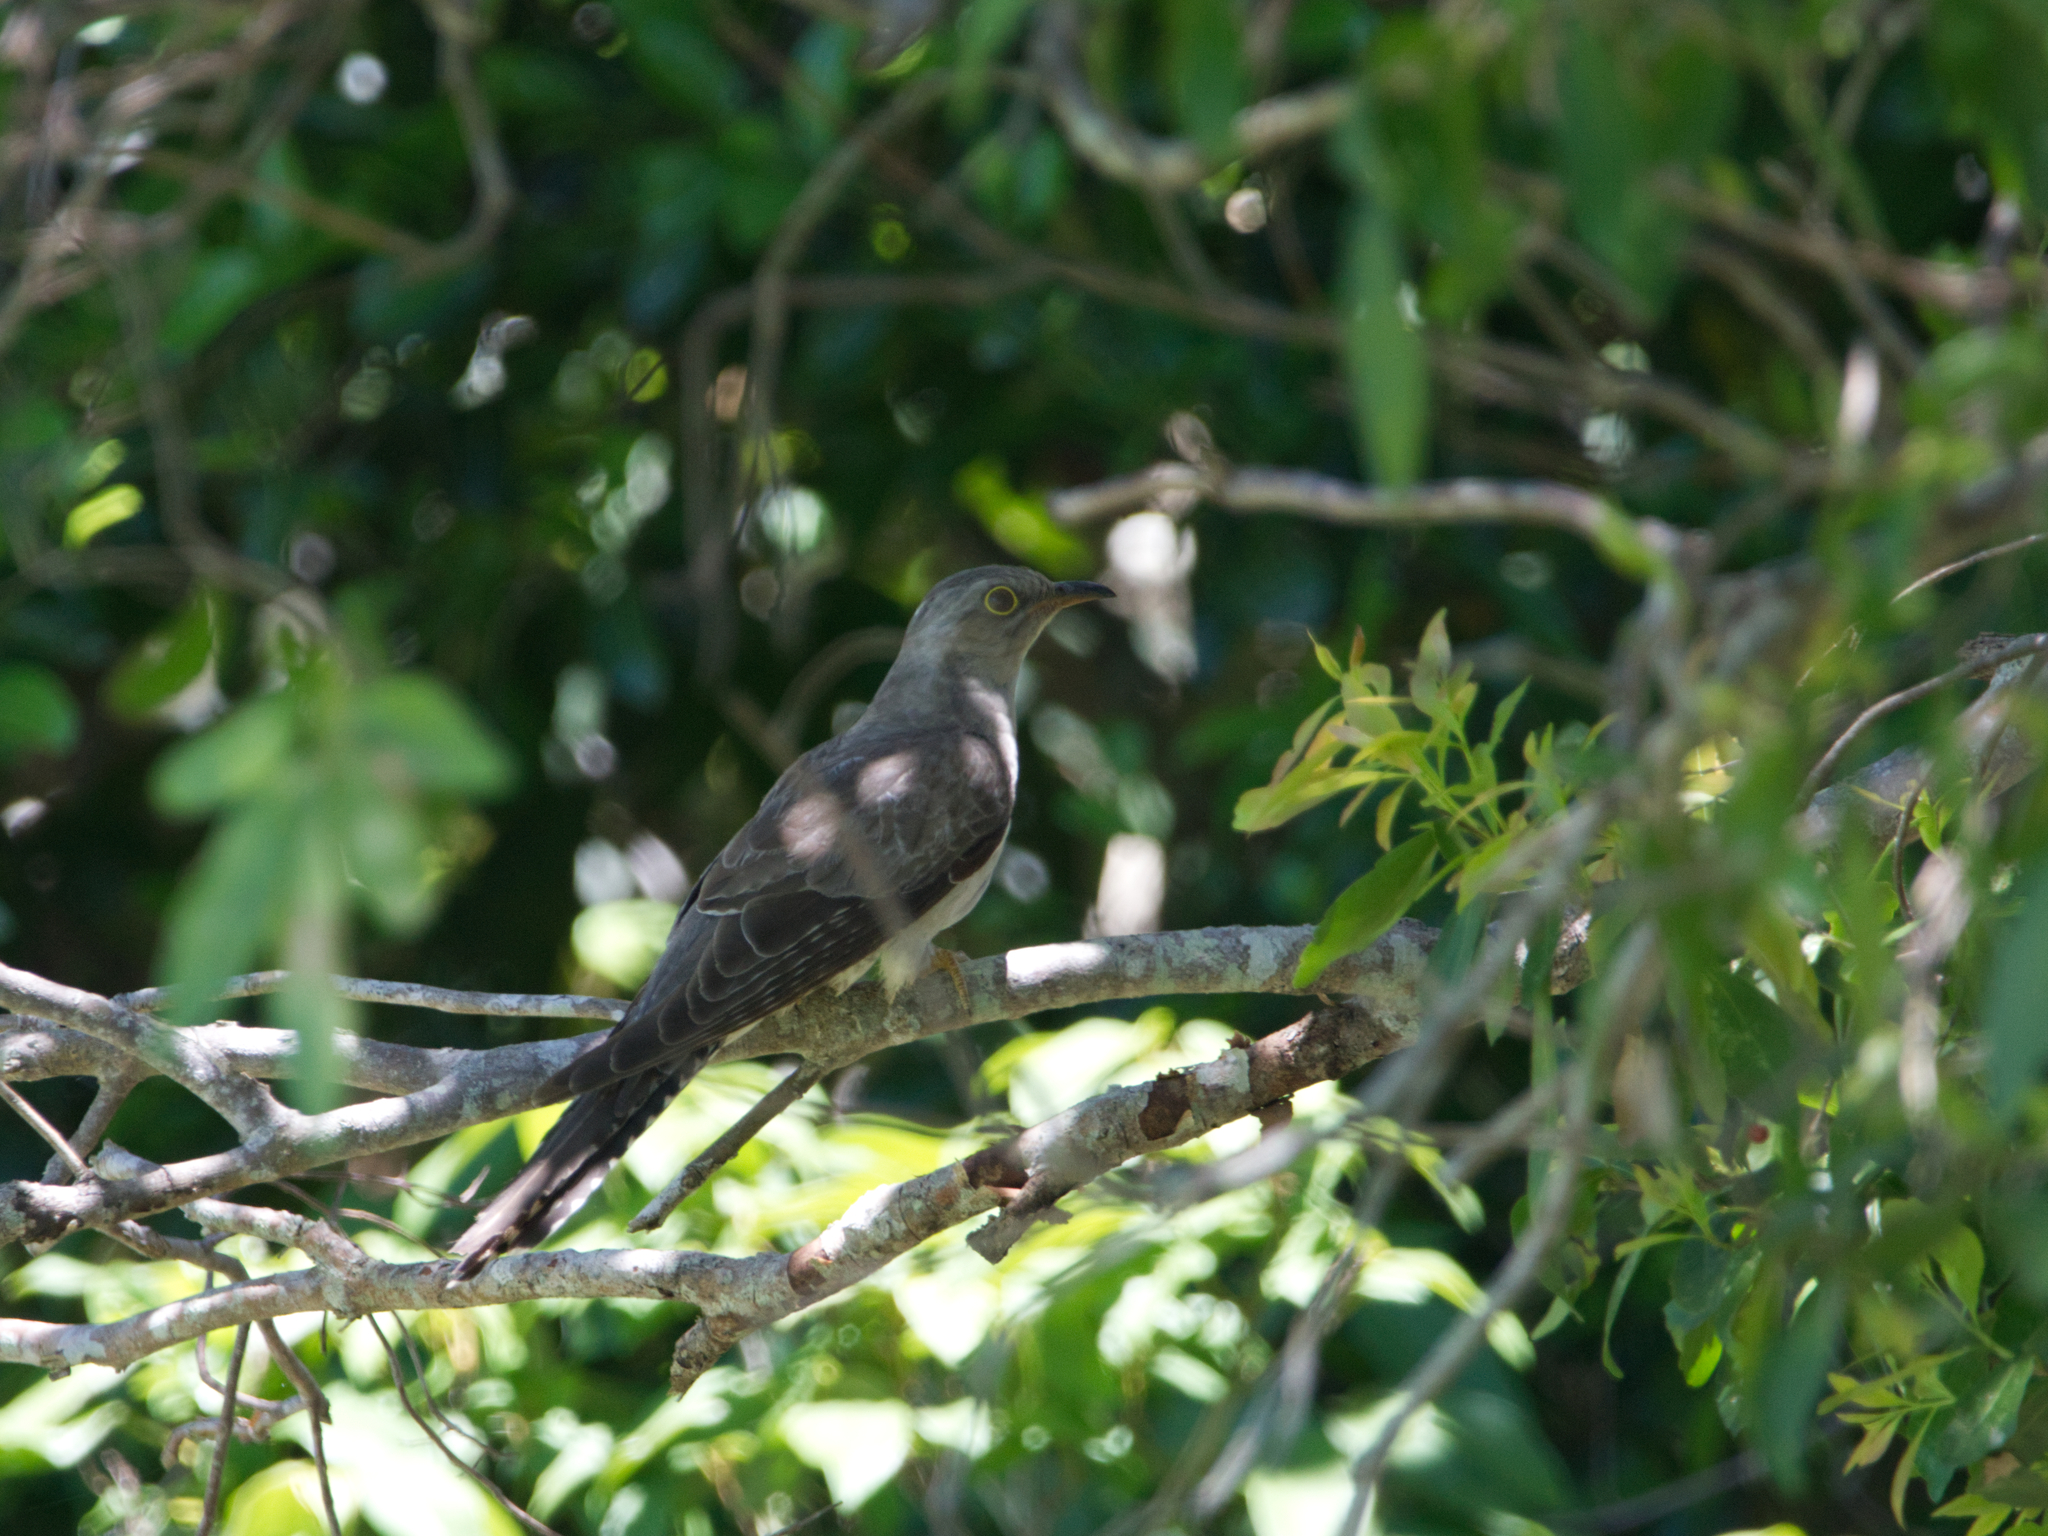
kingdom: Animalia
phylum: Chordata
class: Aves
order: Cuculiformes
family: Cuculidae
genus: Cuculus
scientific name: Cuculus pallidus
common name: Pallid cuckoo
